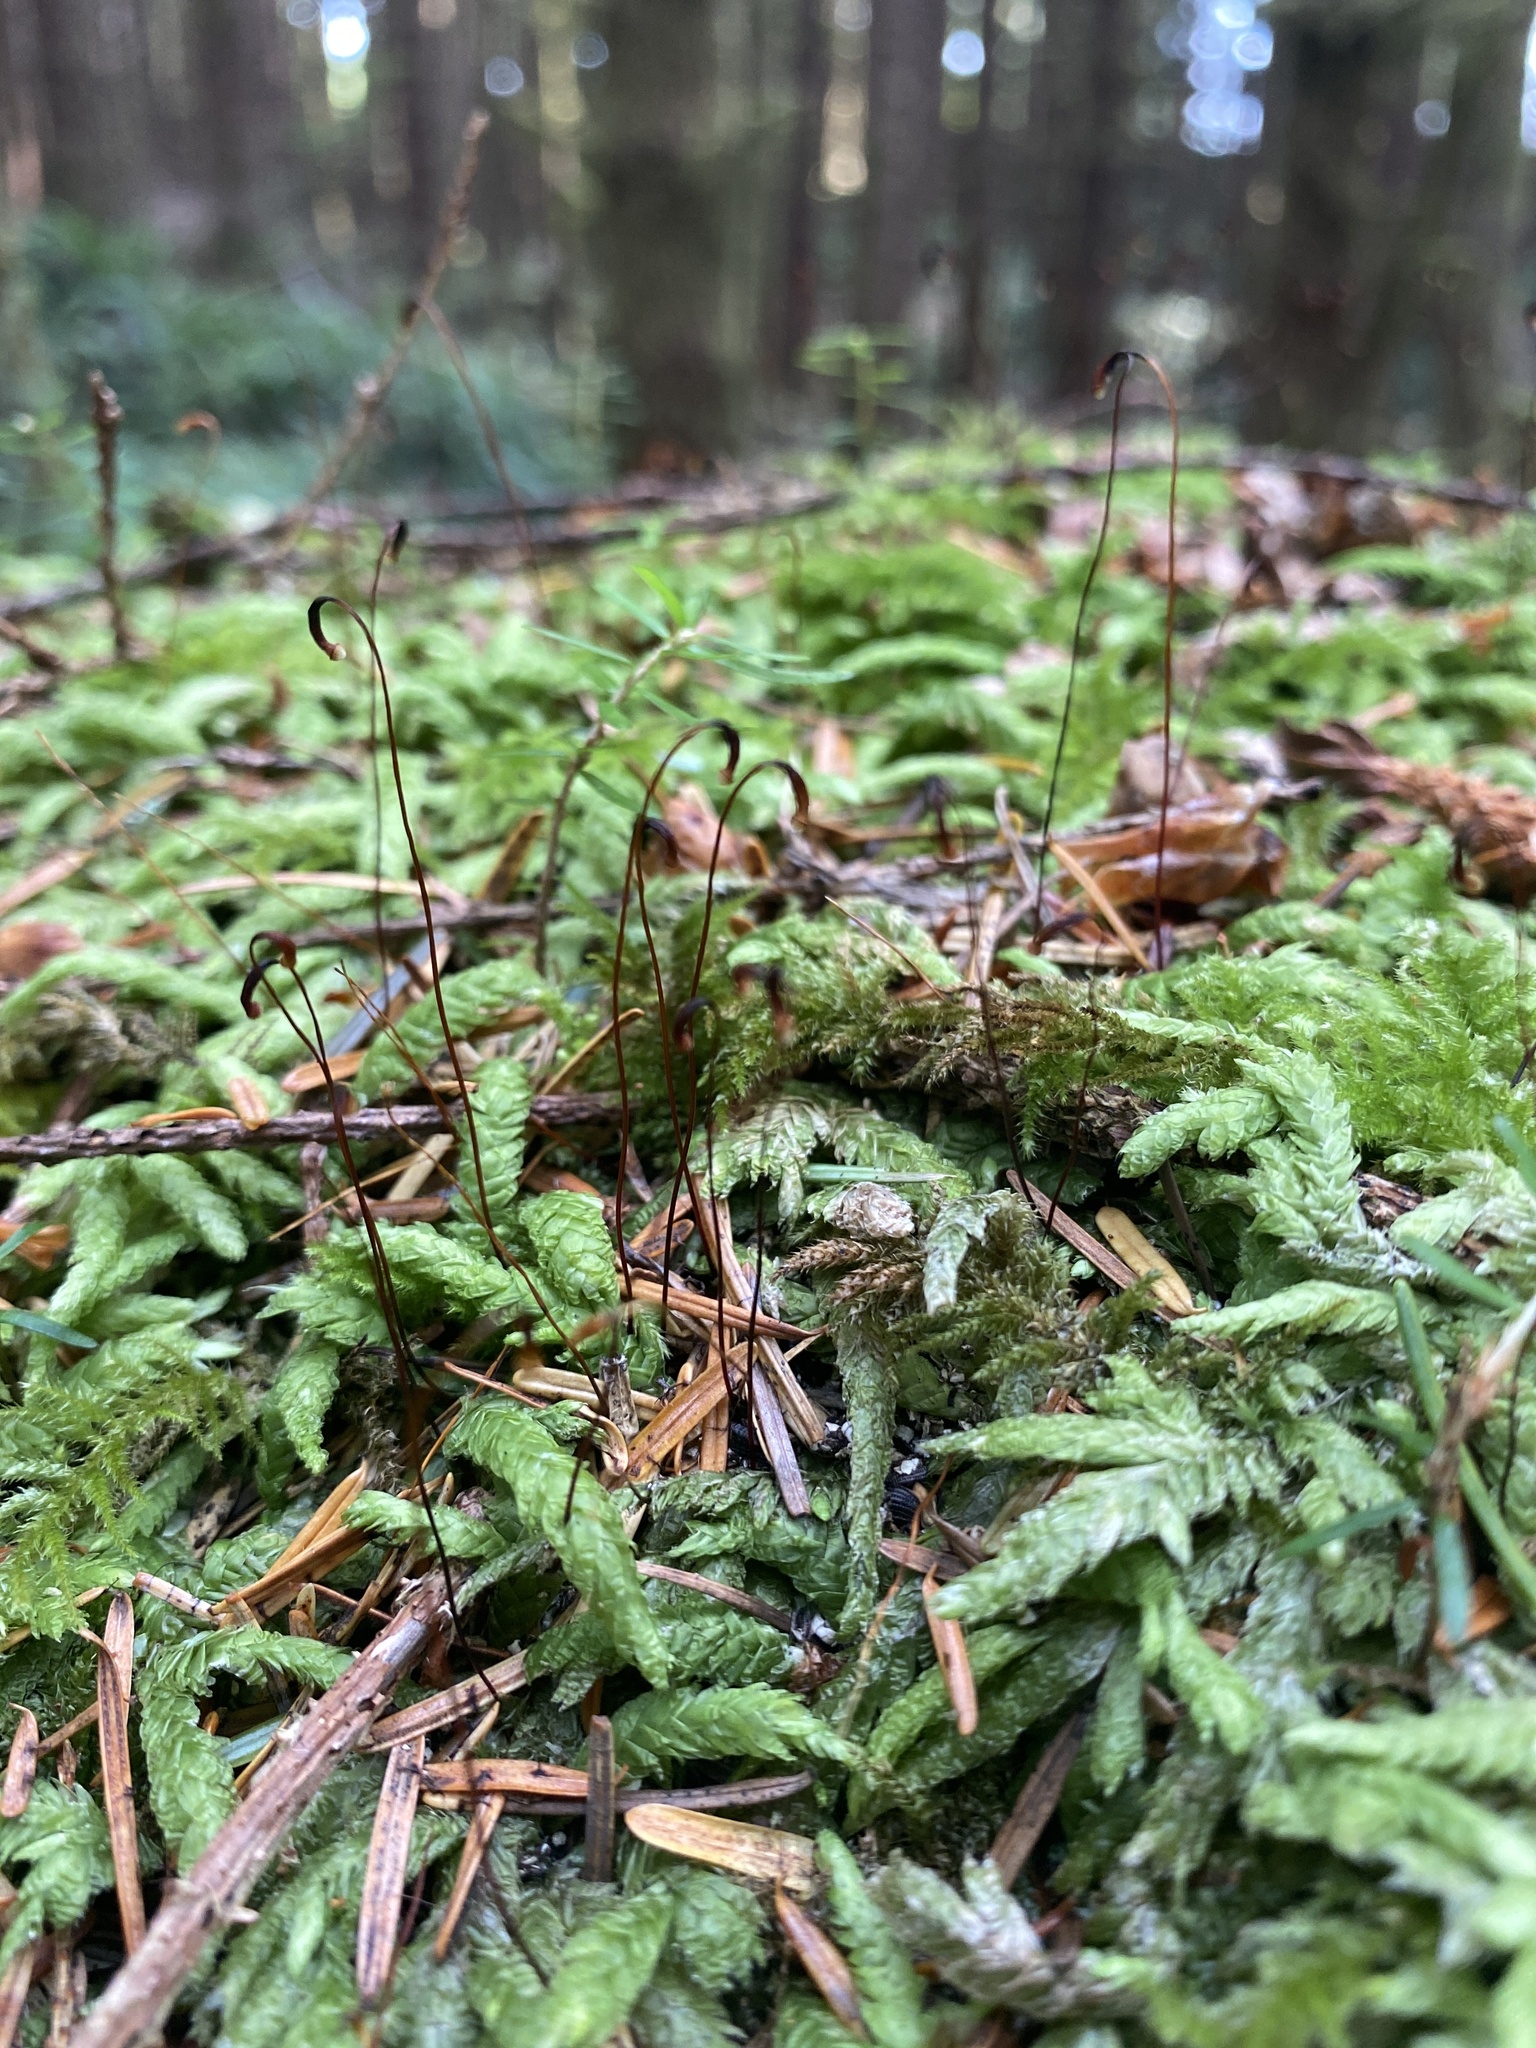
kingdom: Plantae
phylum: Bryophyta
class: Bryopsida
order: Hypnales
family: Plagiotheciaceae
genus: Plagiothecium
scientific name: Plagiothecium undulatum
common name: Waved silk-moss
